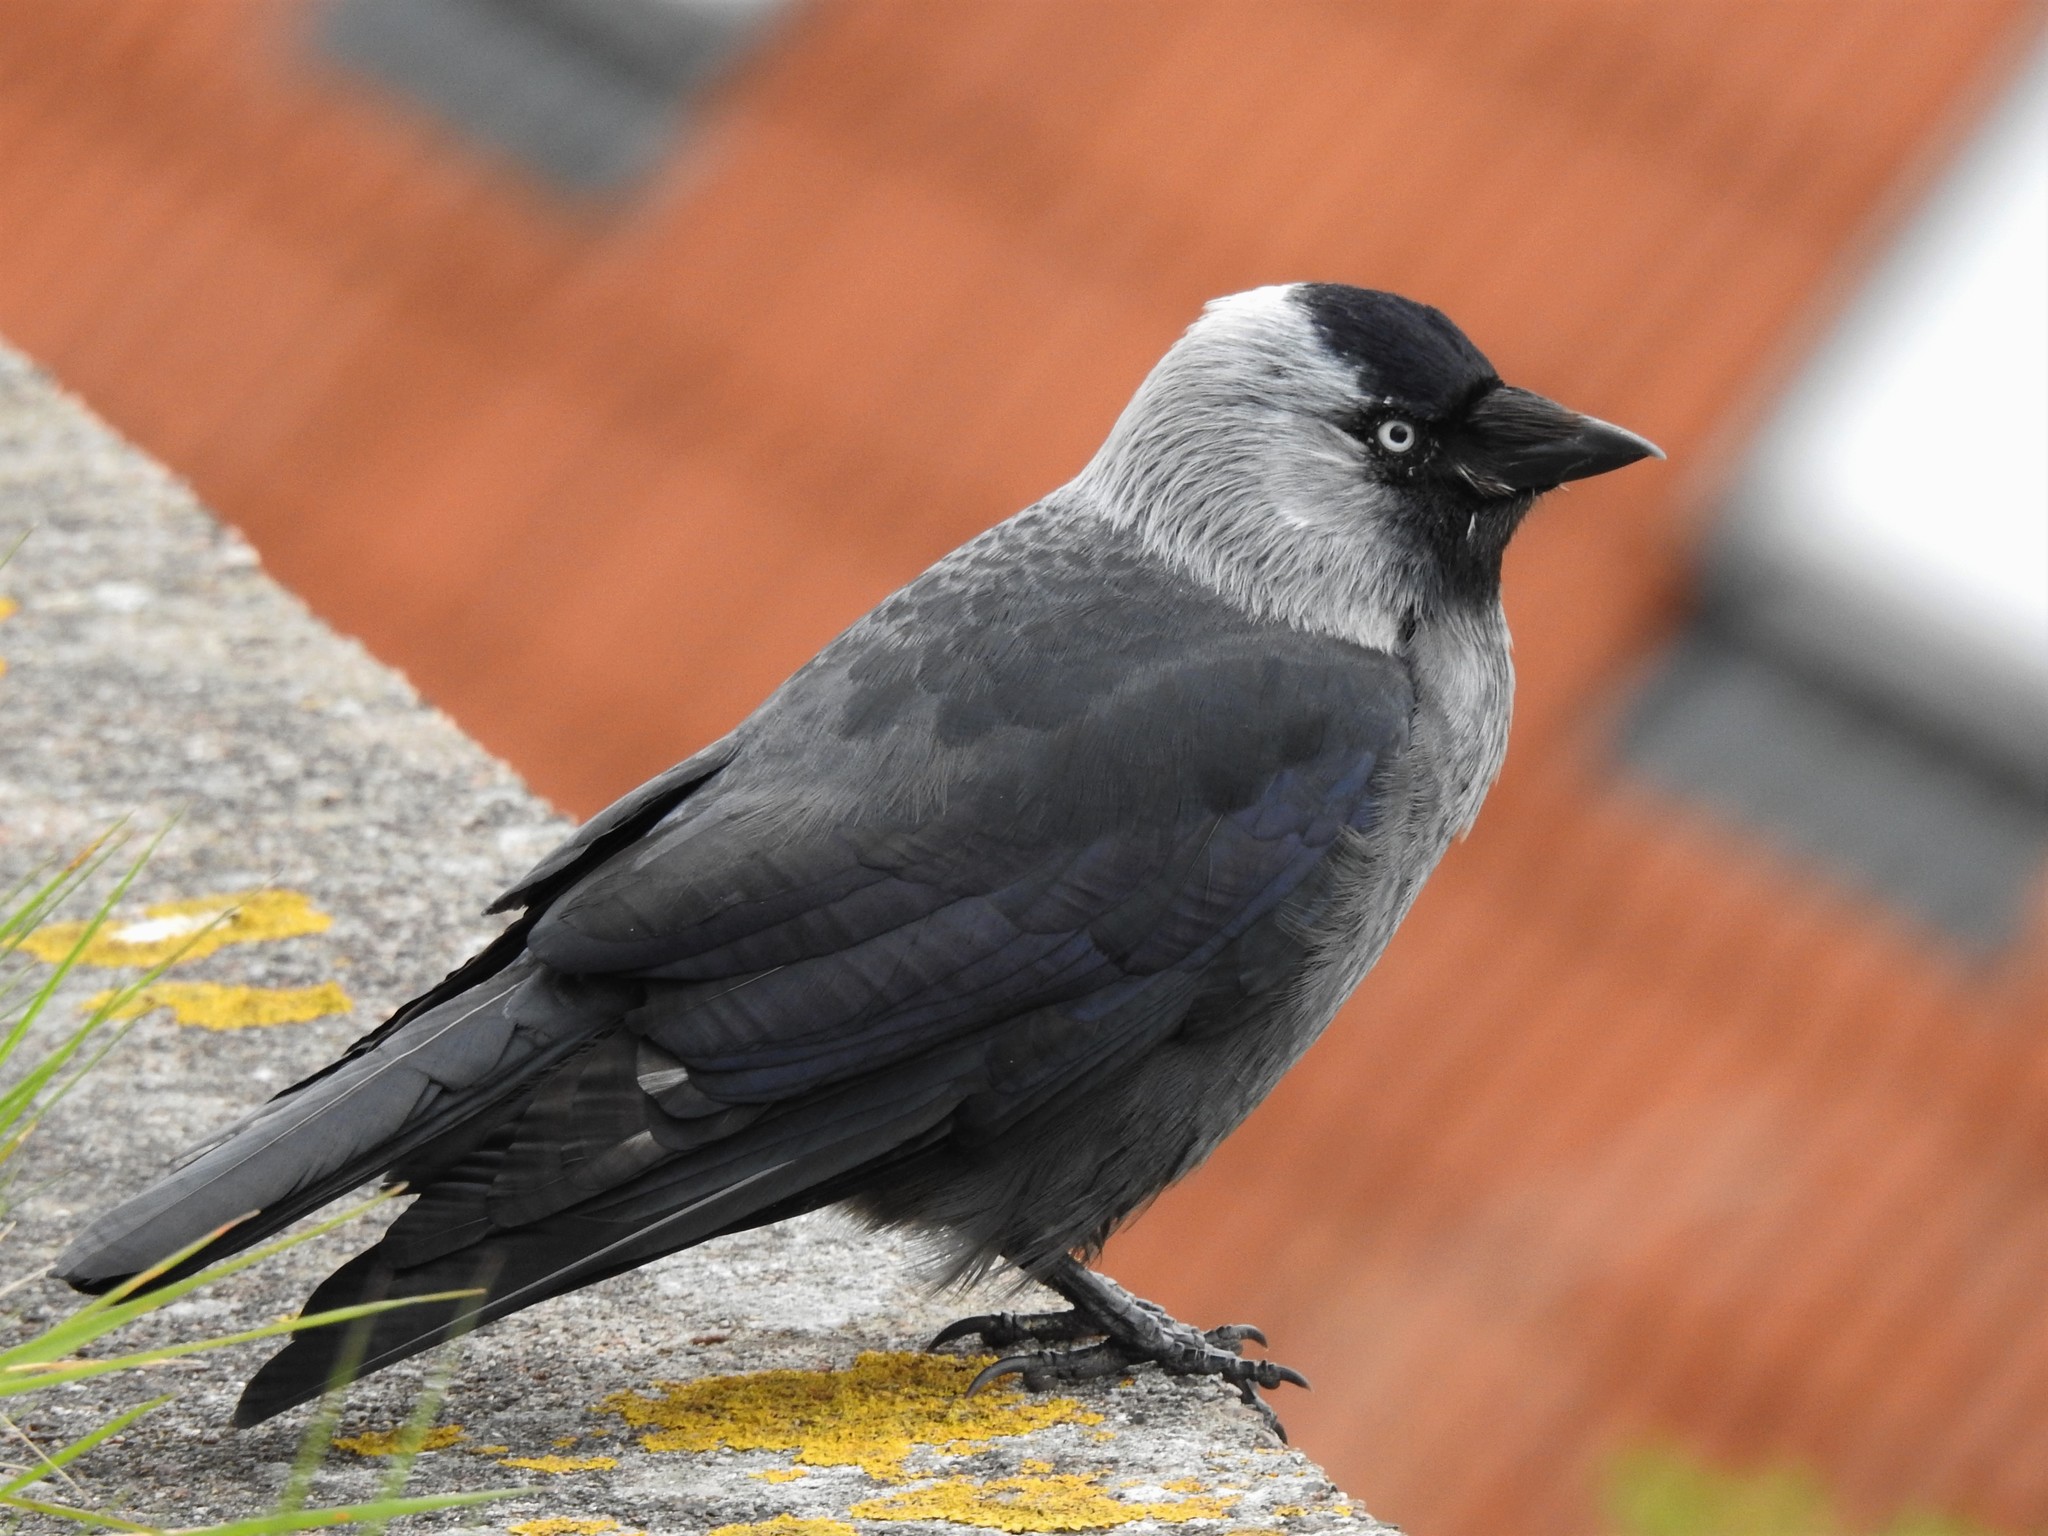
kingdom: Animalia
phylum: Chordata
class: Aves
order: Passeriformes
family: Corvidae
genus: Coloeus
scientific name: Coloeus monedula
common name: Western jackdaw
